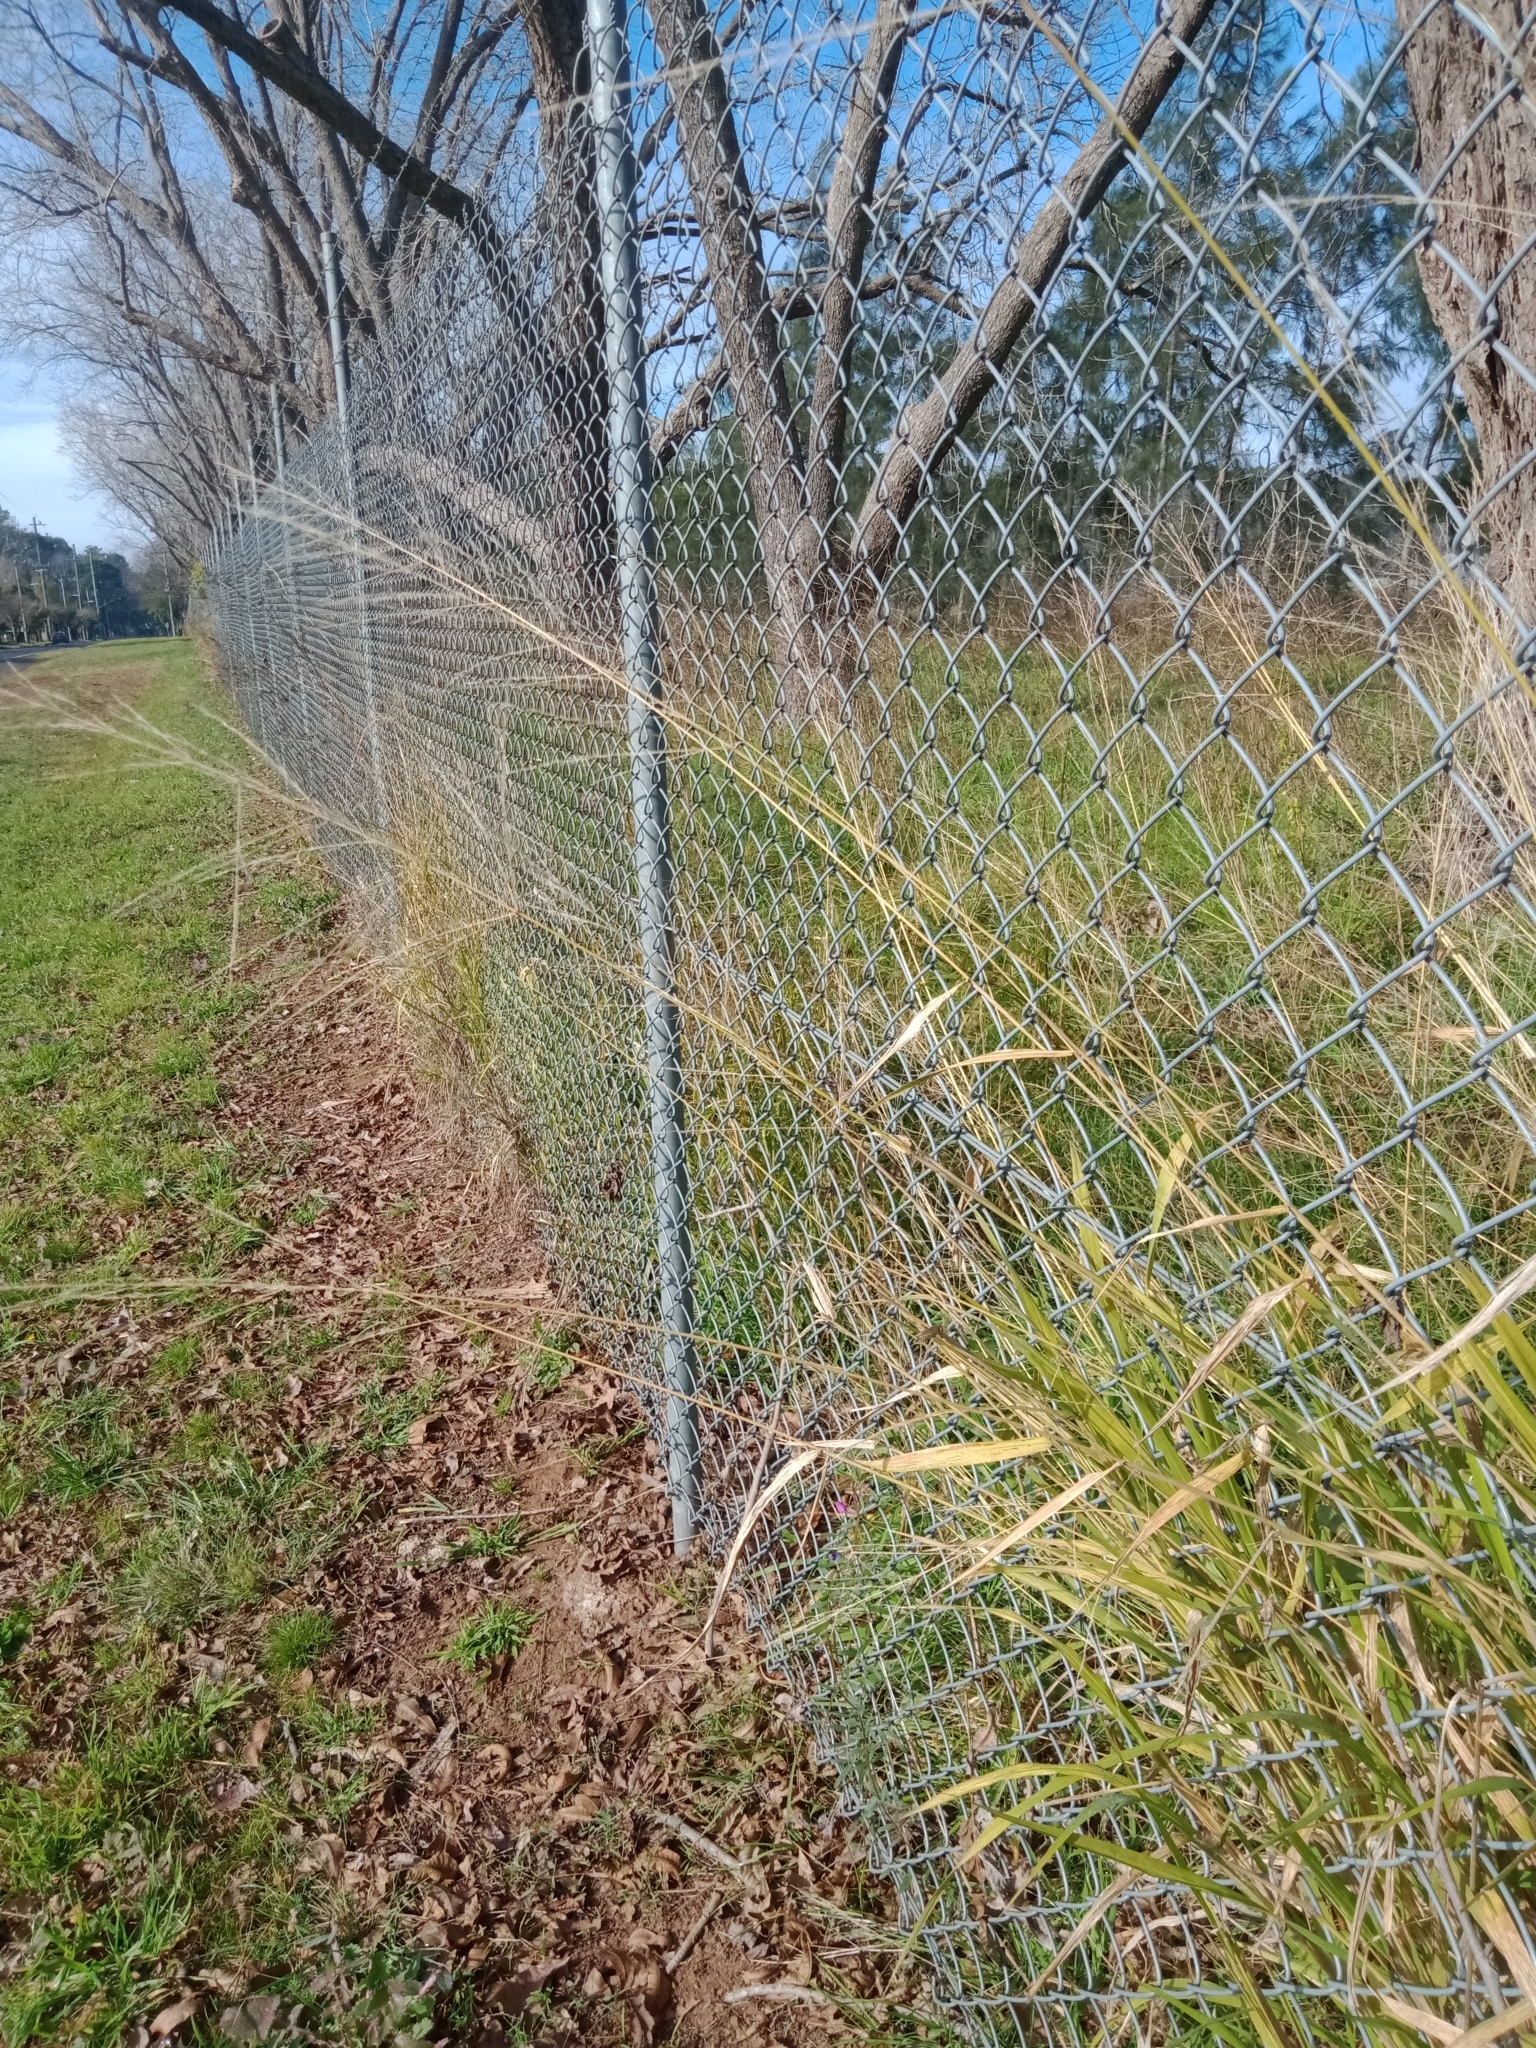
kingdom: Plantae
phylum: Tracheophyta
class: Liliopsida
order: Poales
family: Poaceae
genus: Megathyrsus
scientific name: Megathyrsus maximus
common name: Guineagrass
